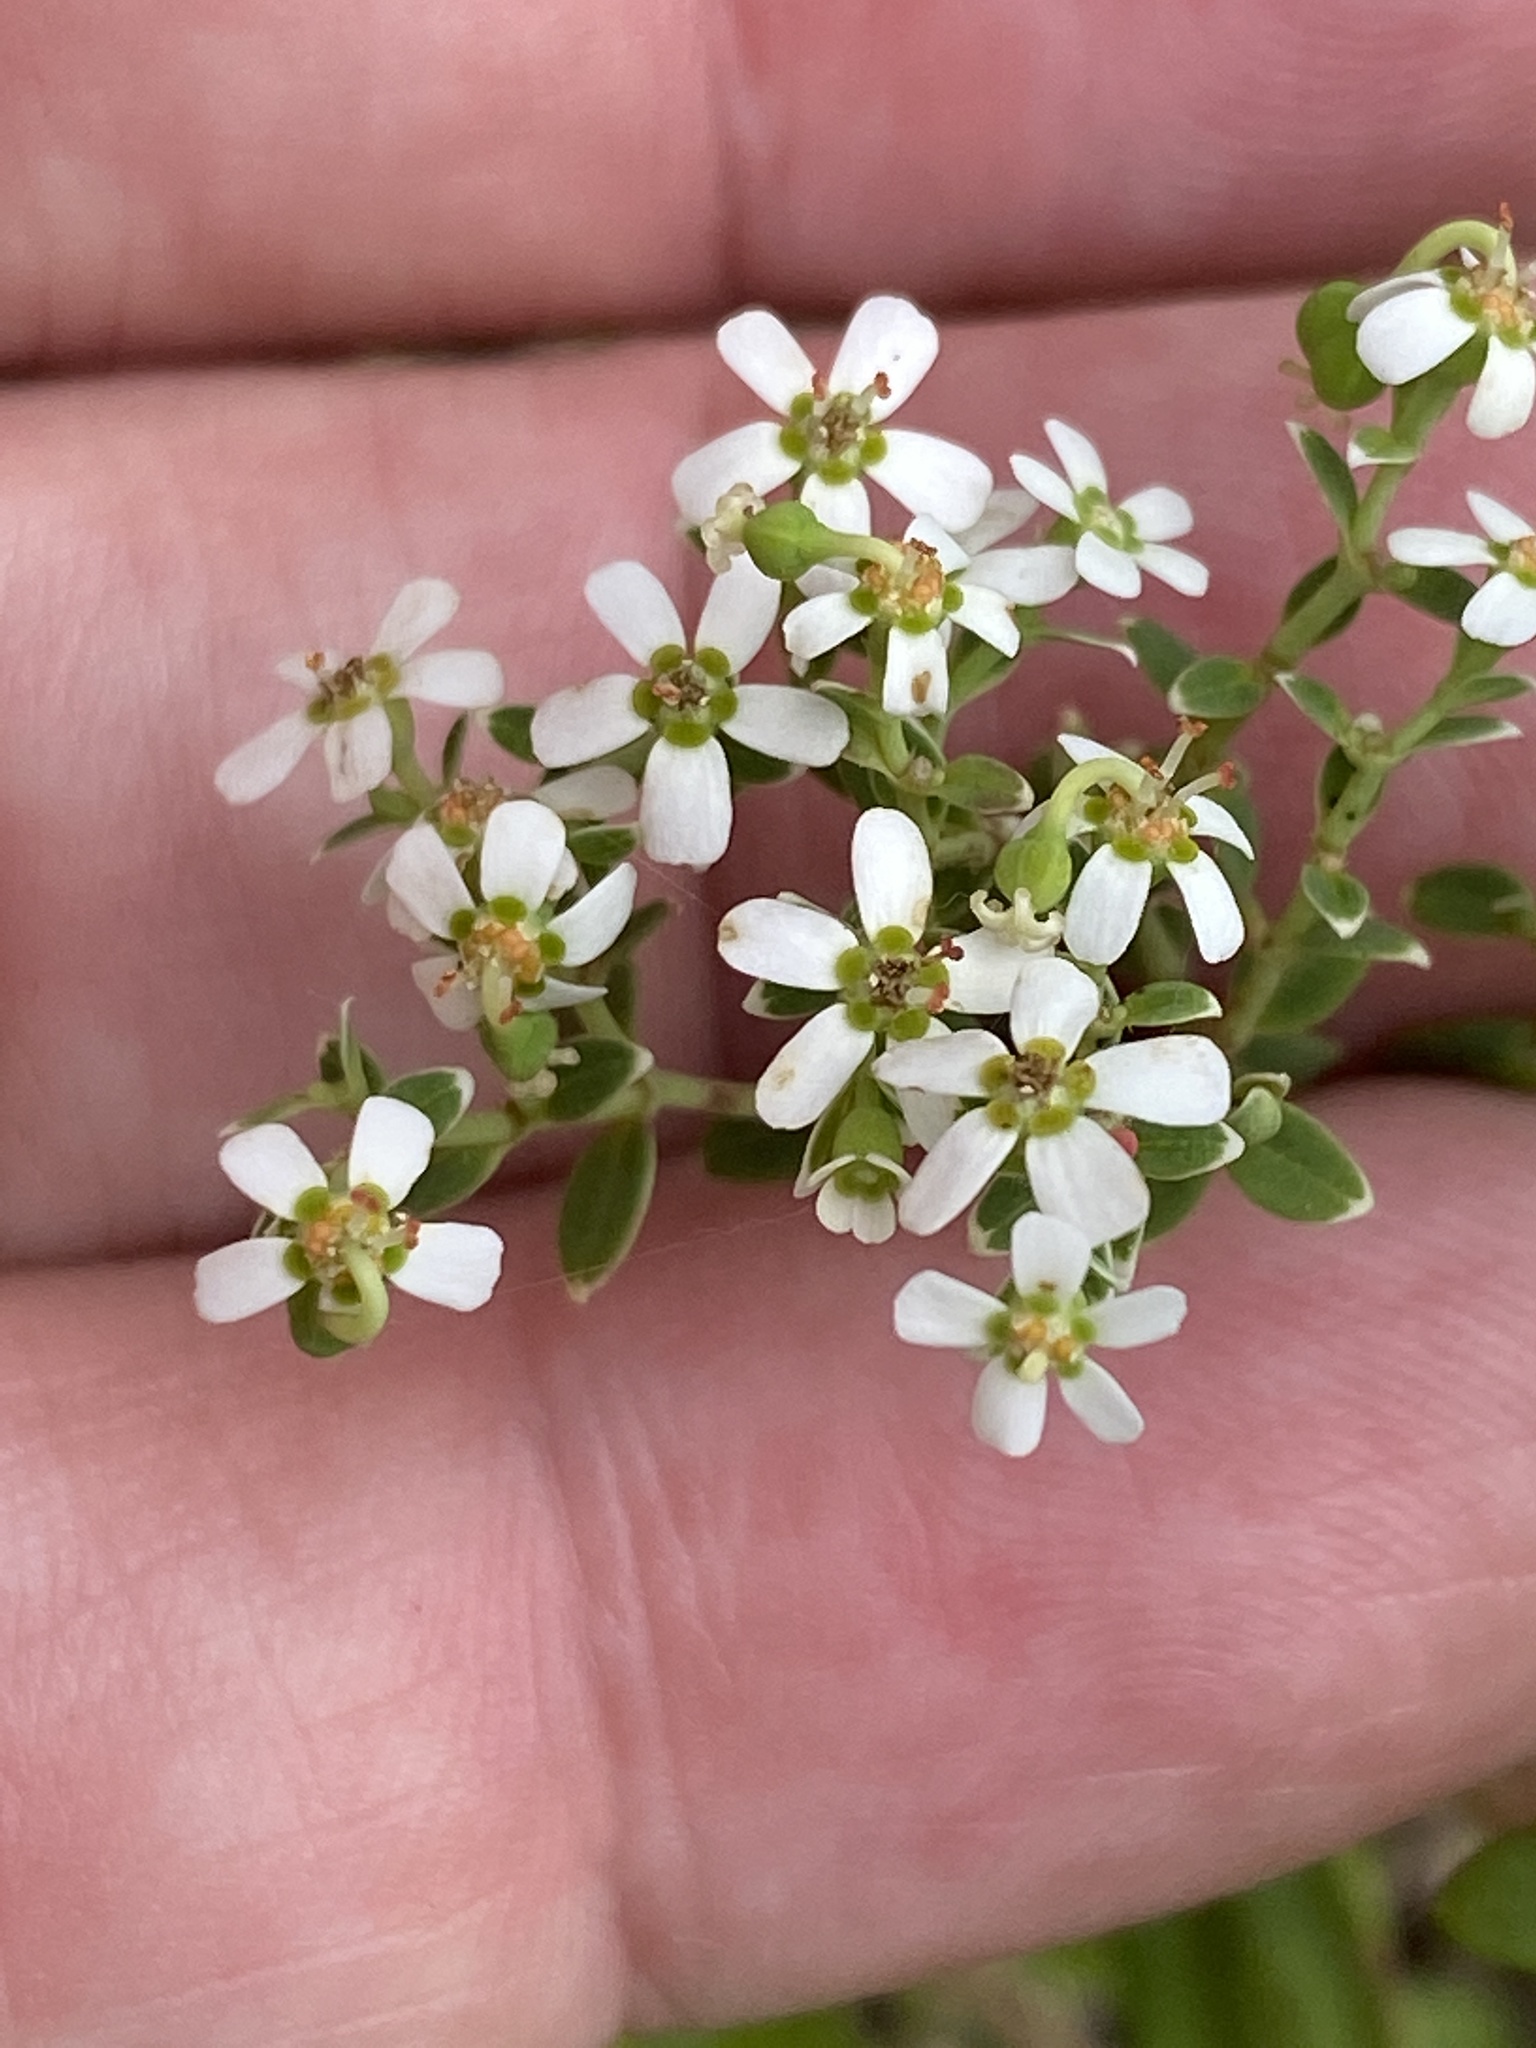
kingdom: Plantae
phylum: Tracheophyta
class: Magnoliopsida
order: Malpighiales
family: Euphorbiaceae
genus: Euphorbia
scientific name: Euphorbia pubentissima
